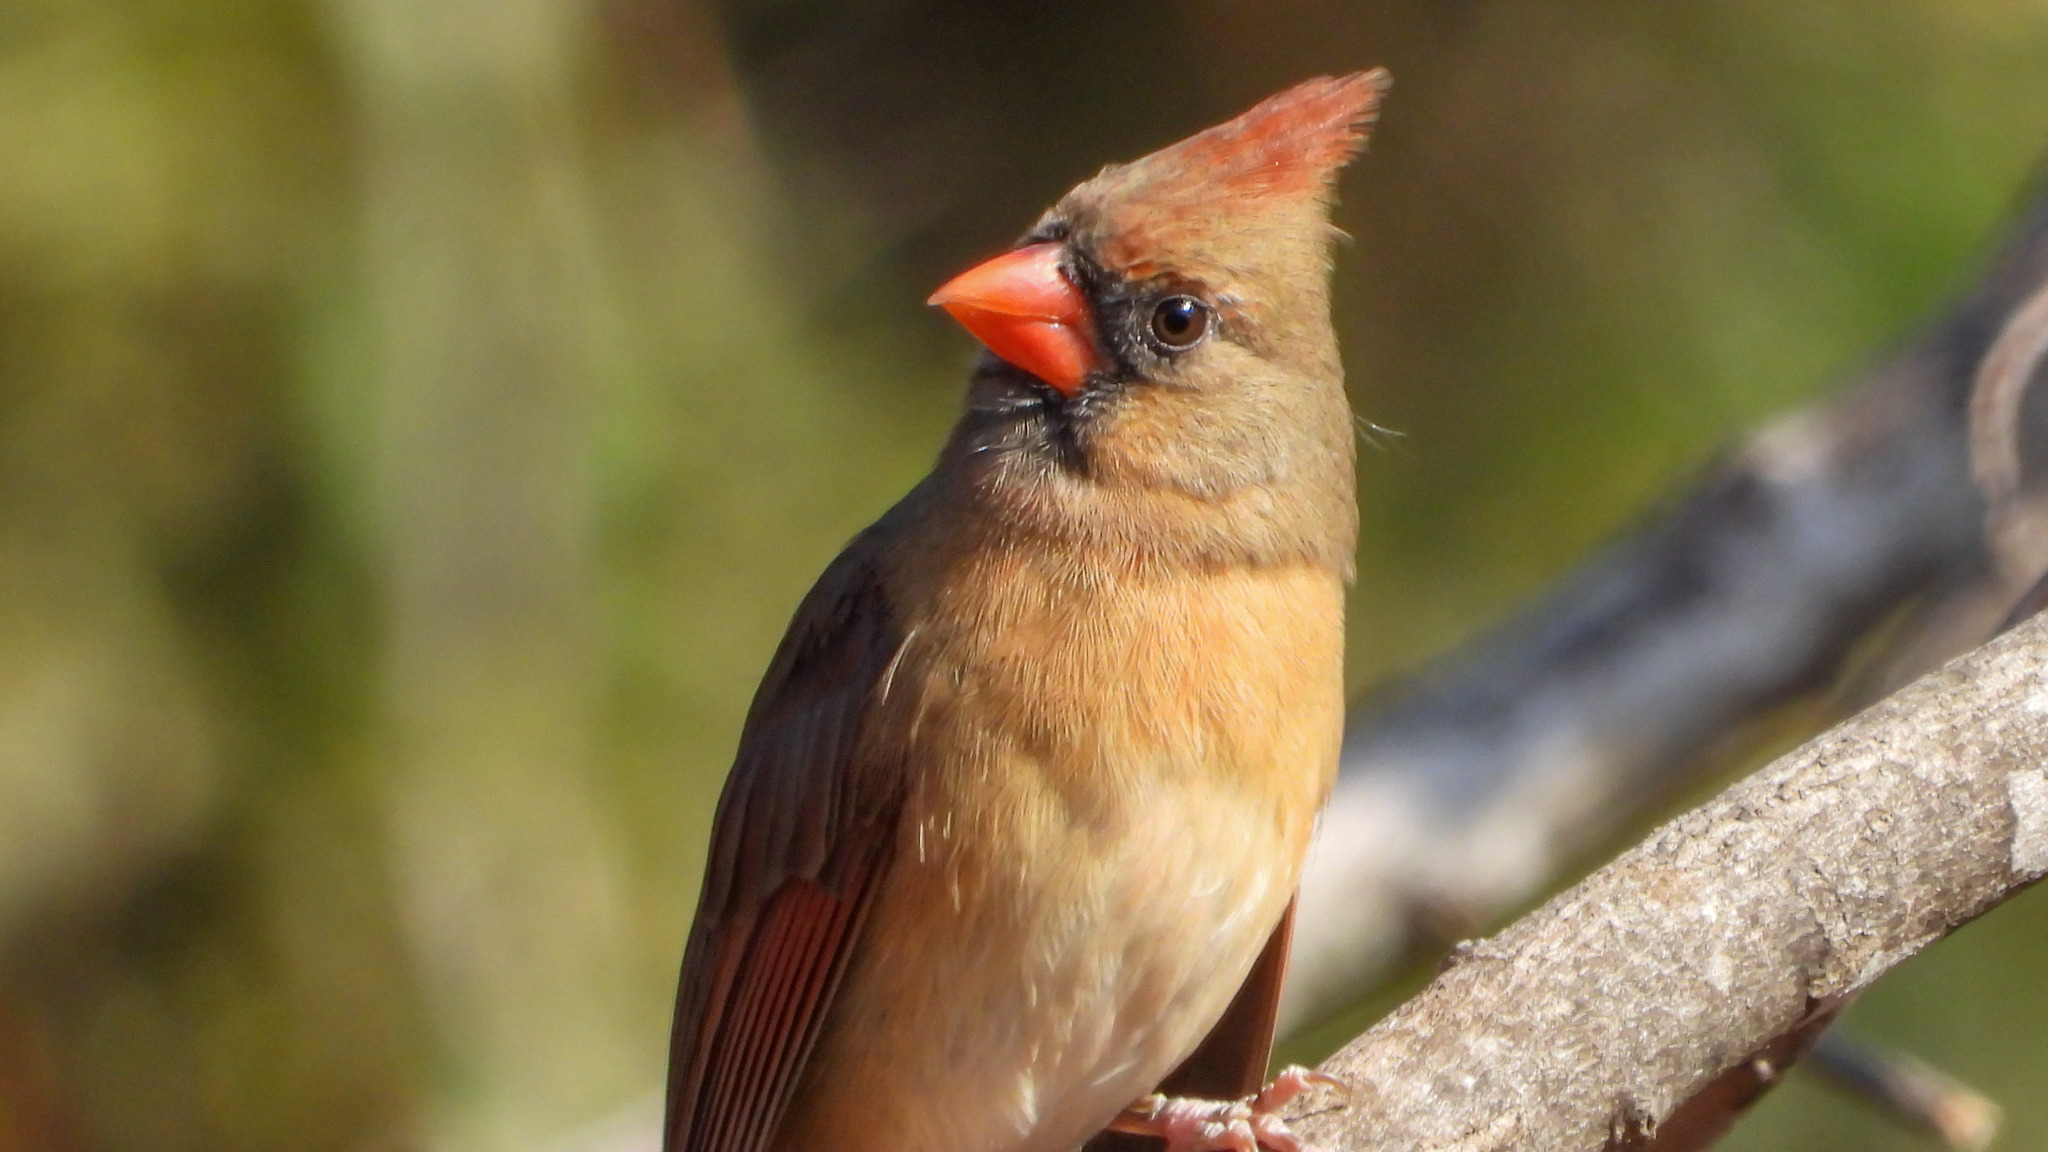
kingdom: Animalia
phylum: Chordata
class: Aves
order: Passeriformes
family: Cardinalidae
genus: Cardinalis
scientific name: Cardinalis cardinalis
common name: Northern cardinal
